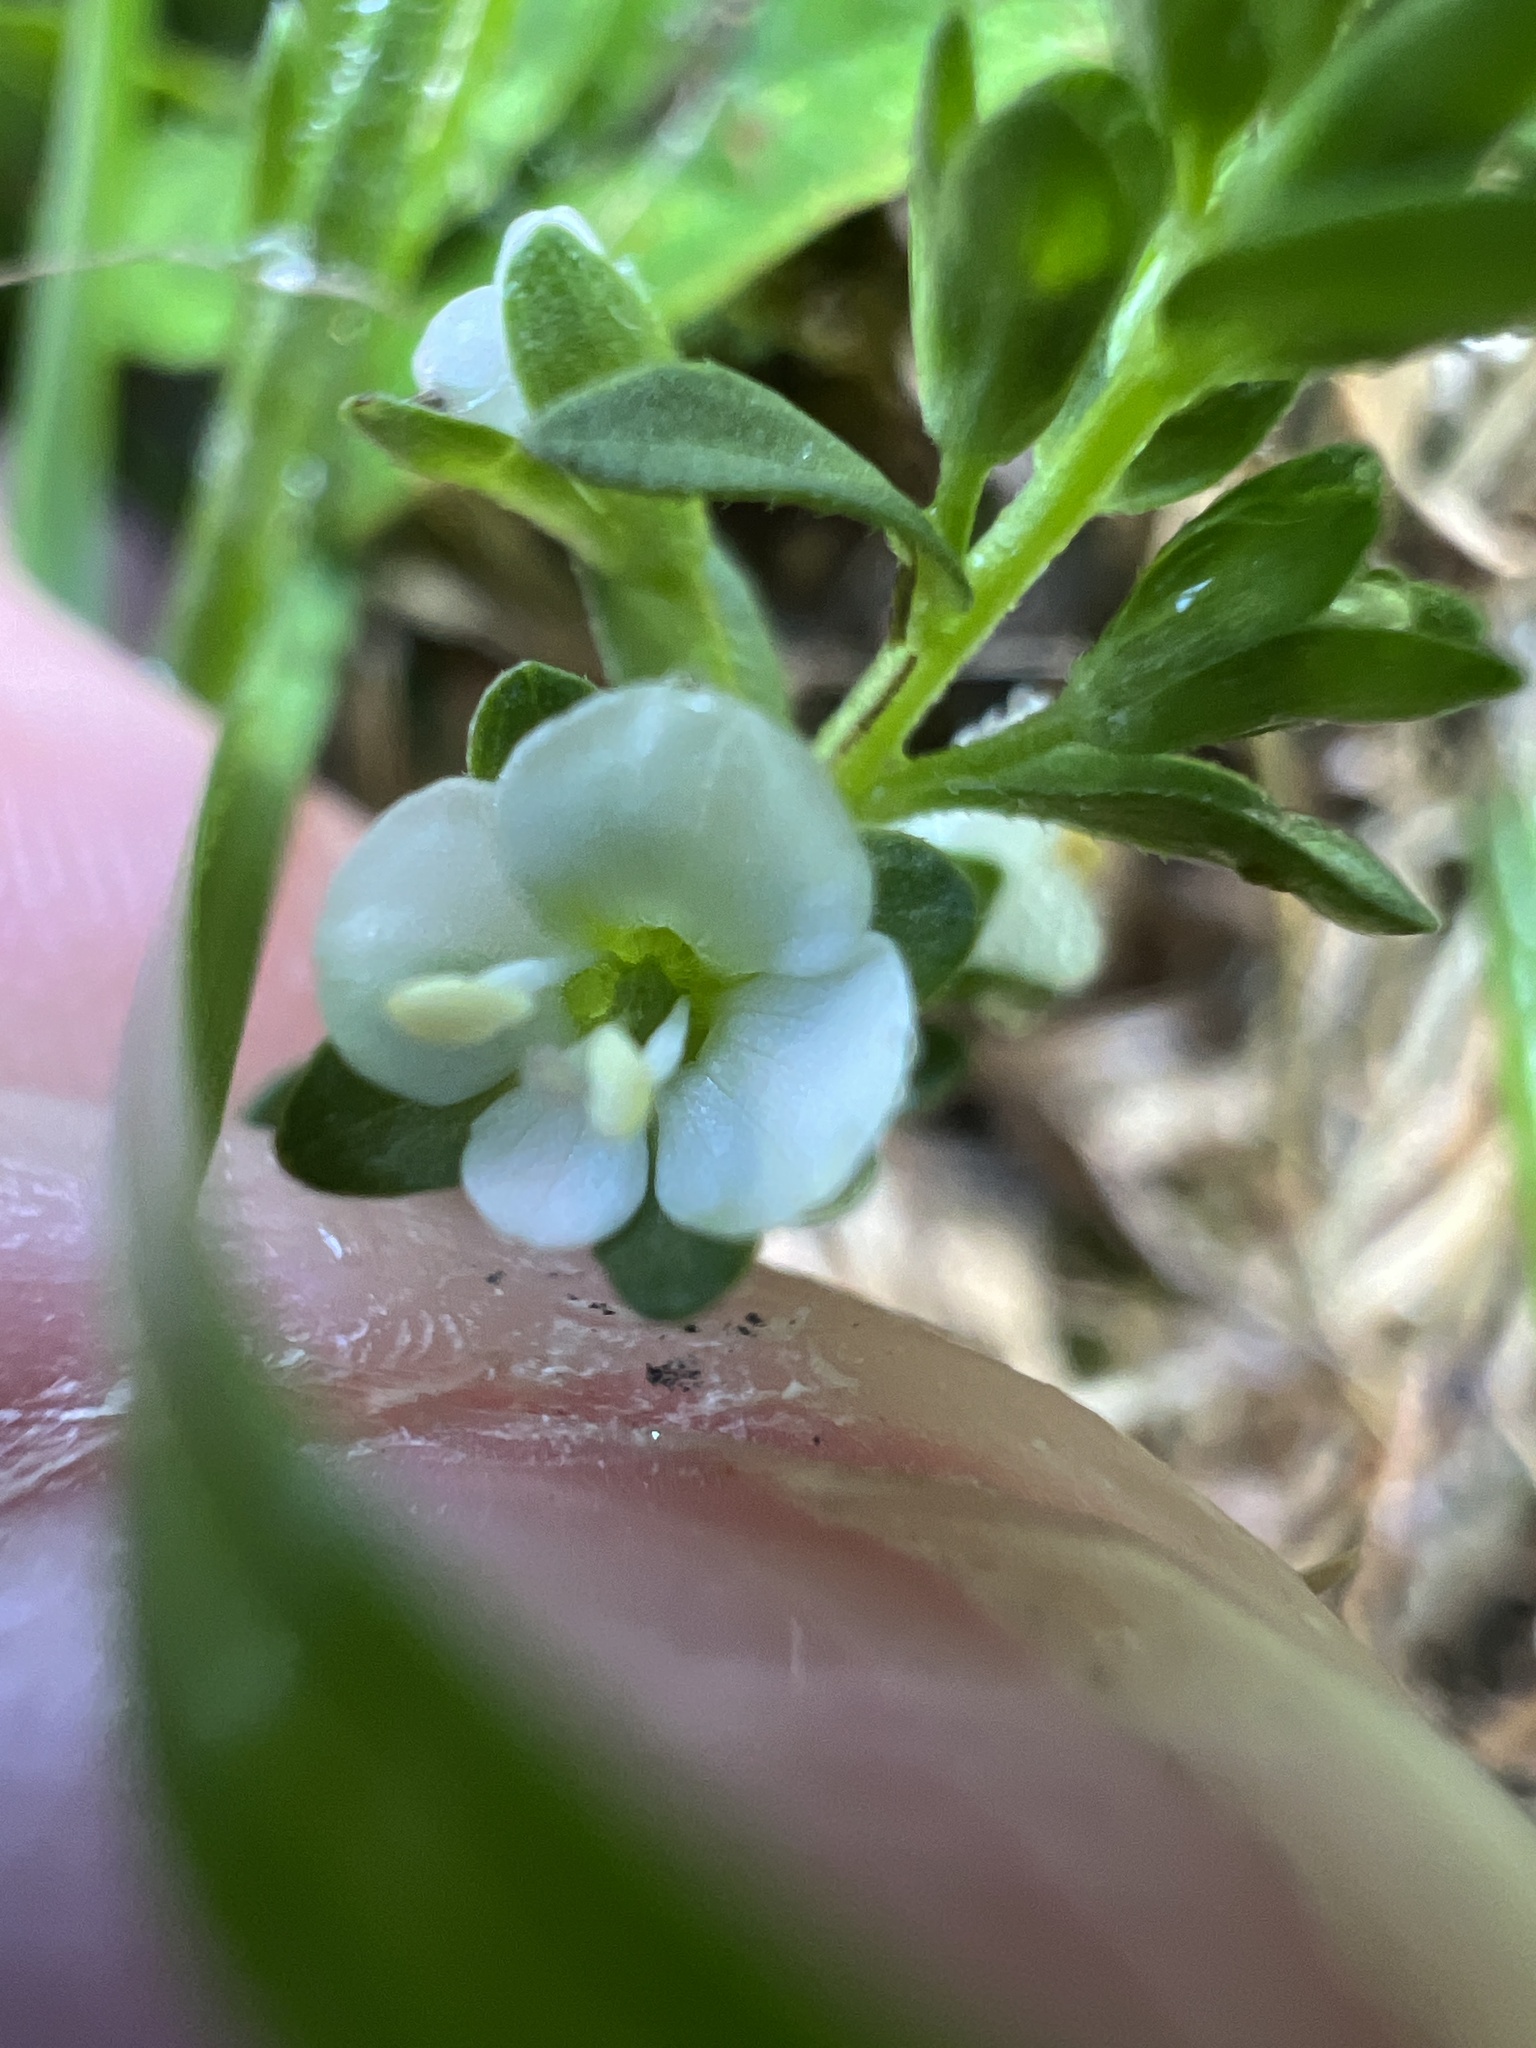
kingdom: Plantae
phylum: Tracheophyta
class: Magnoliopsida
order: Lamiales
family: Plantaginaceae
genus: Veronica
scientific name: Veronica serpyllifolia
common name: Thyme-leaved speedwell
